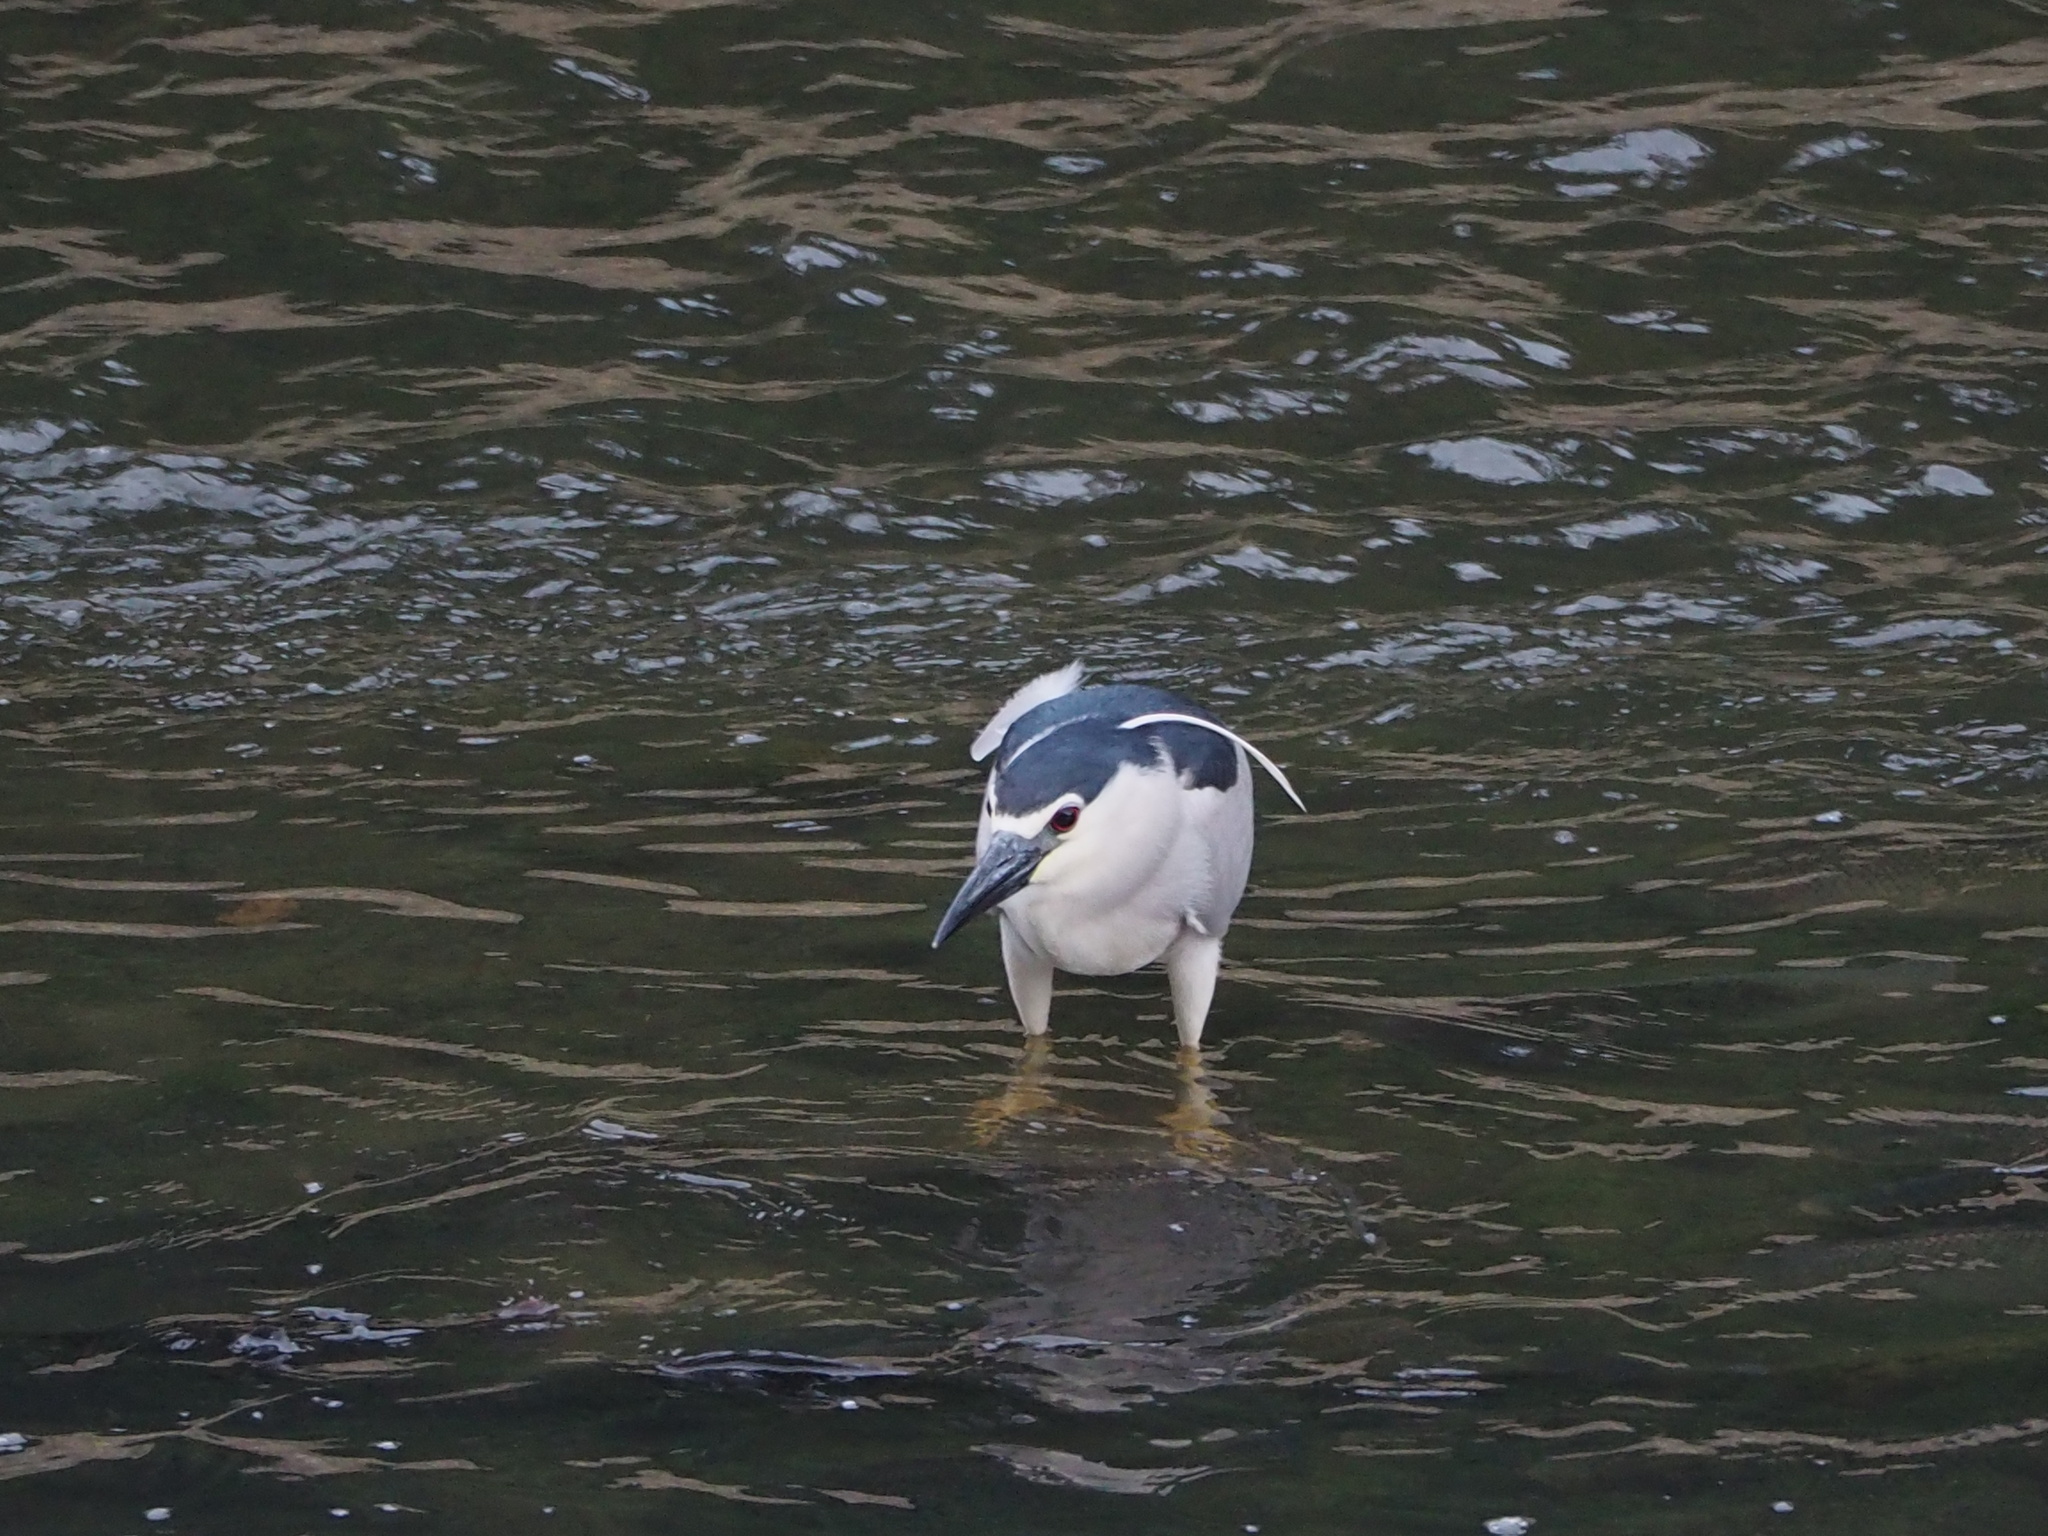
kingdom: Animalia
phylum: Chordata
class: Aves
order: Pelecaniformes
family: Ardeidae
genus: Nycticorax
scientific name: Nycticorax nycticorax
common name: Black-crowned night heron
